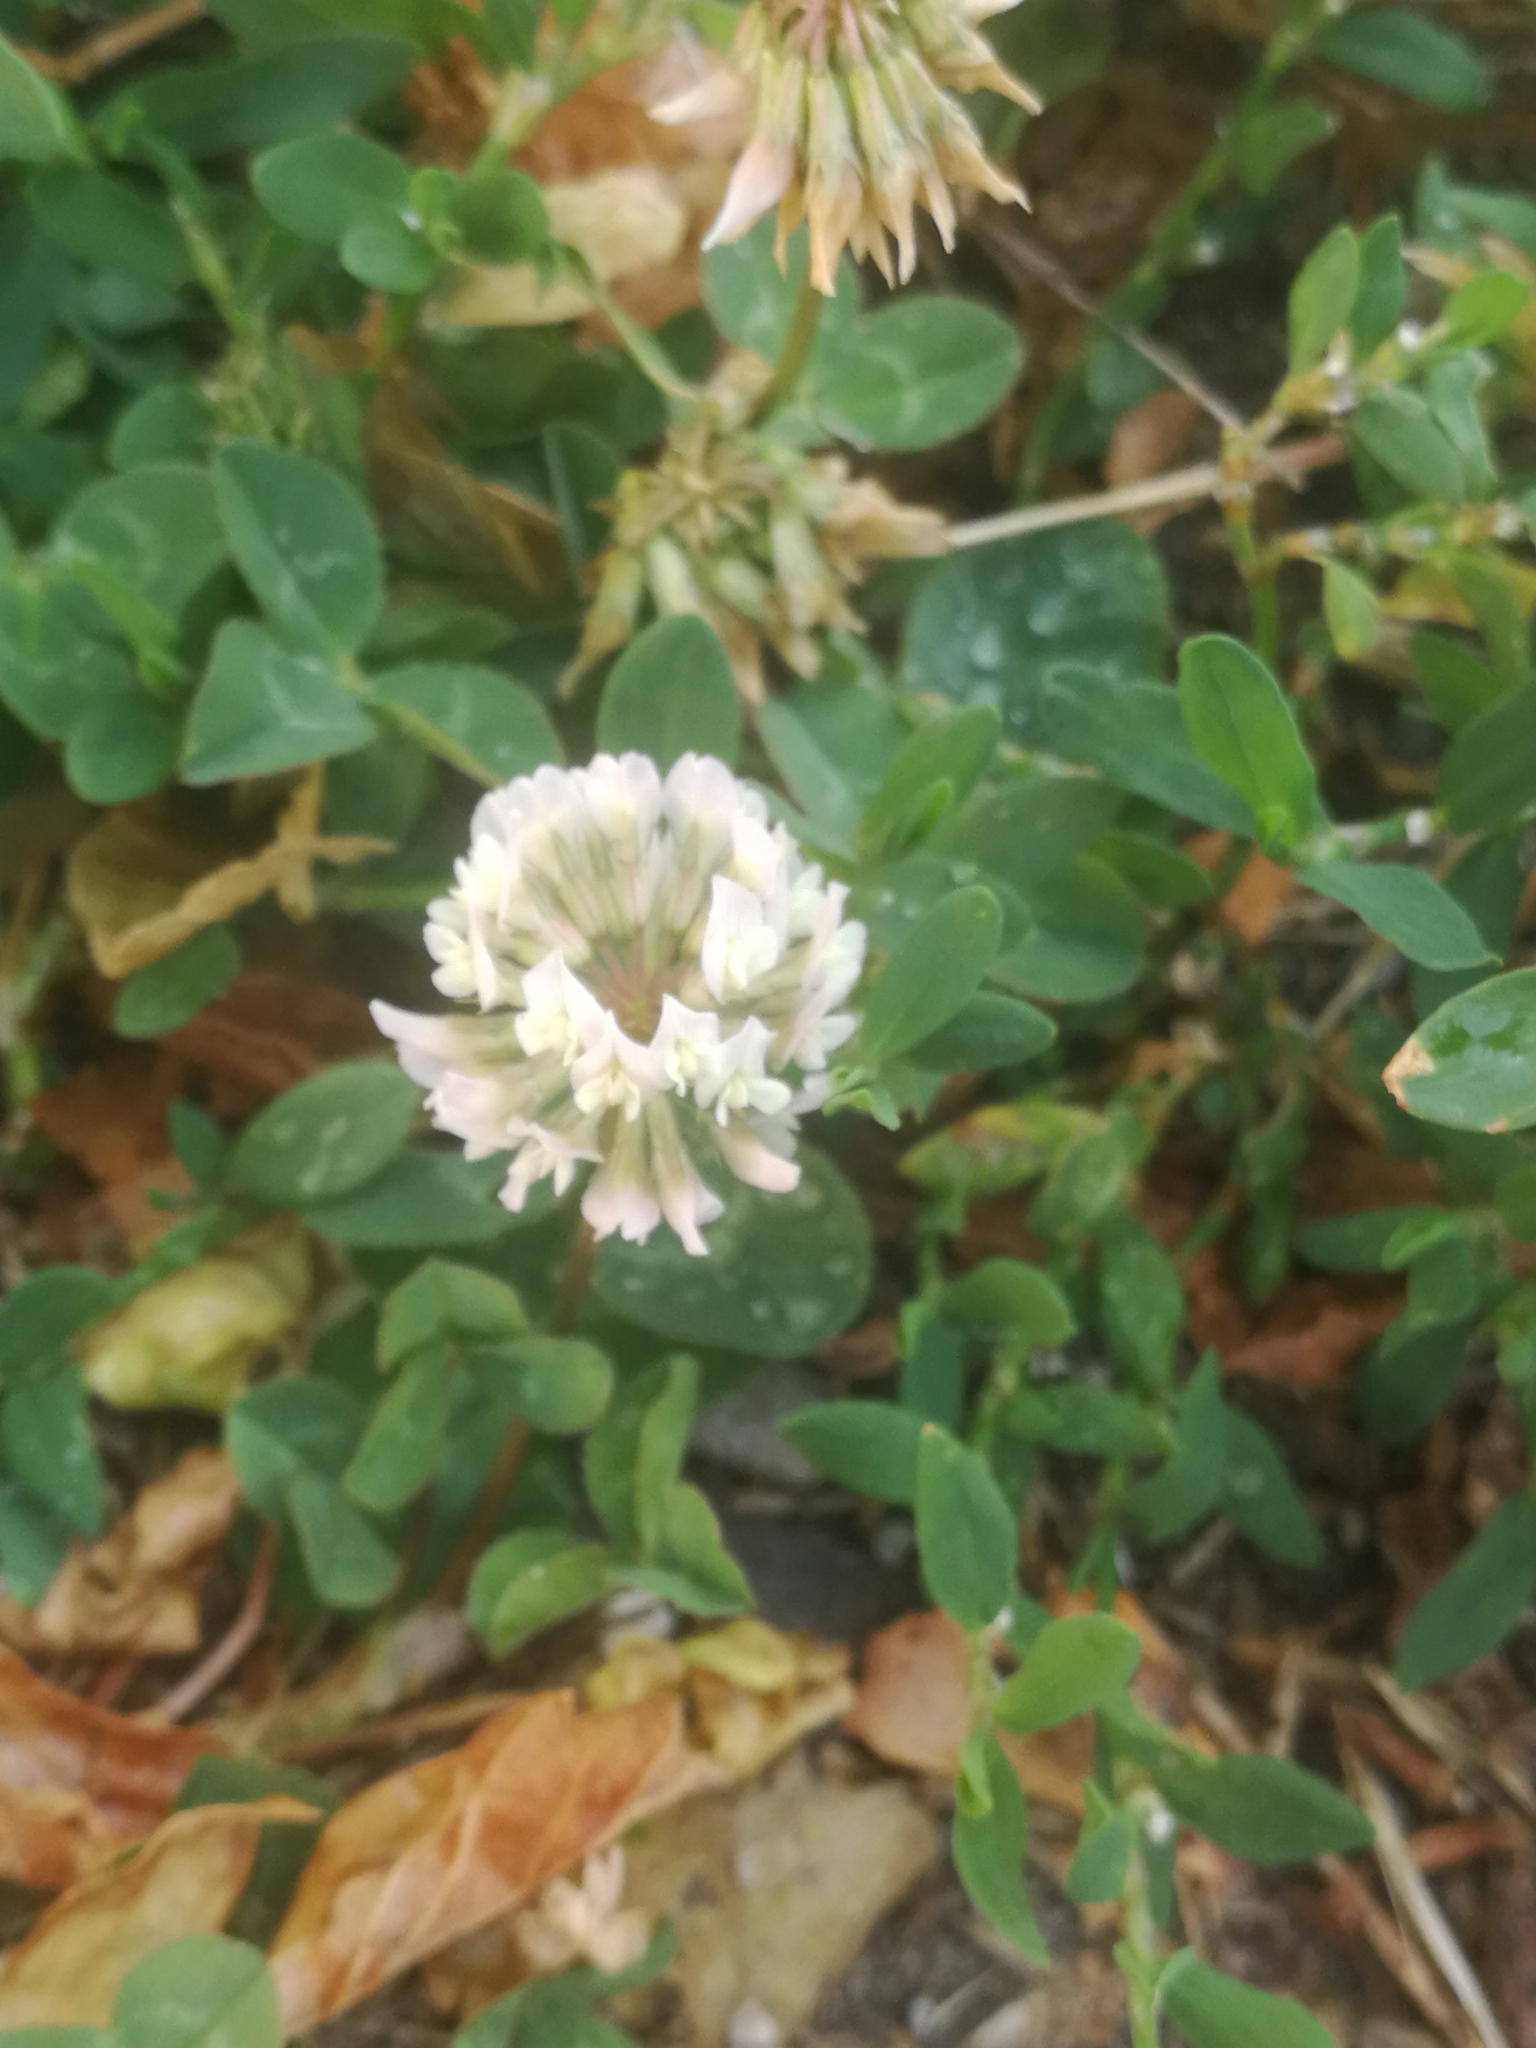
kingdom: Plantae
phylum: Tracheophyta
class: Magnoliopsida
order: Fabales
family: Fabaceae
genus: Trifolium
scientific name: Trifolium repens
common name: White clover
